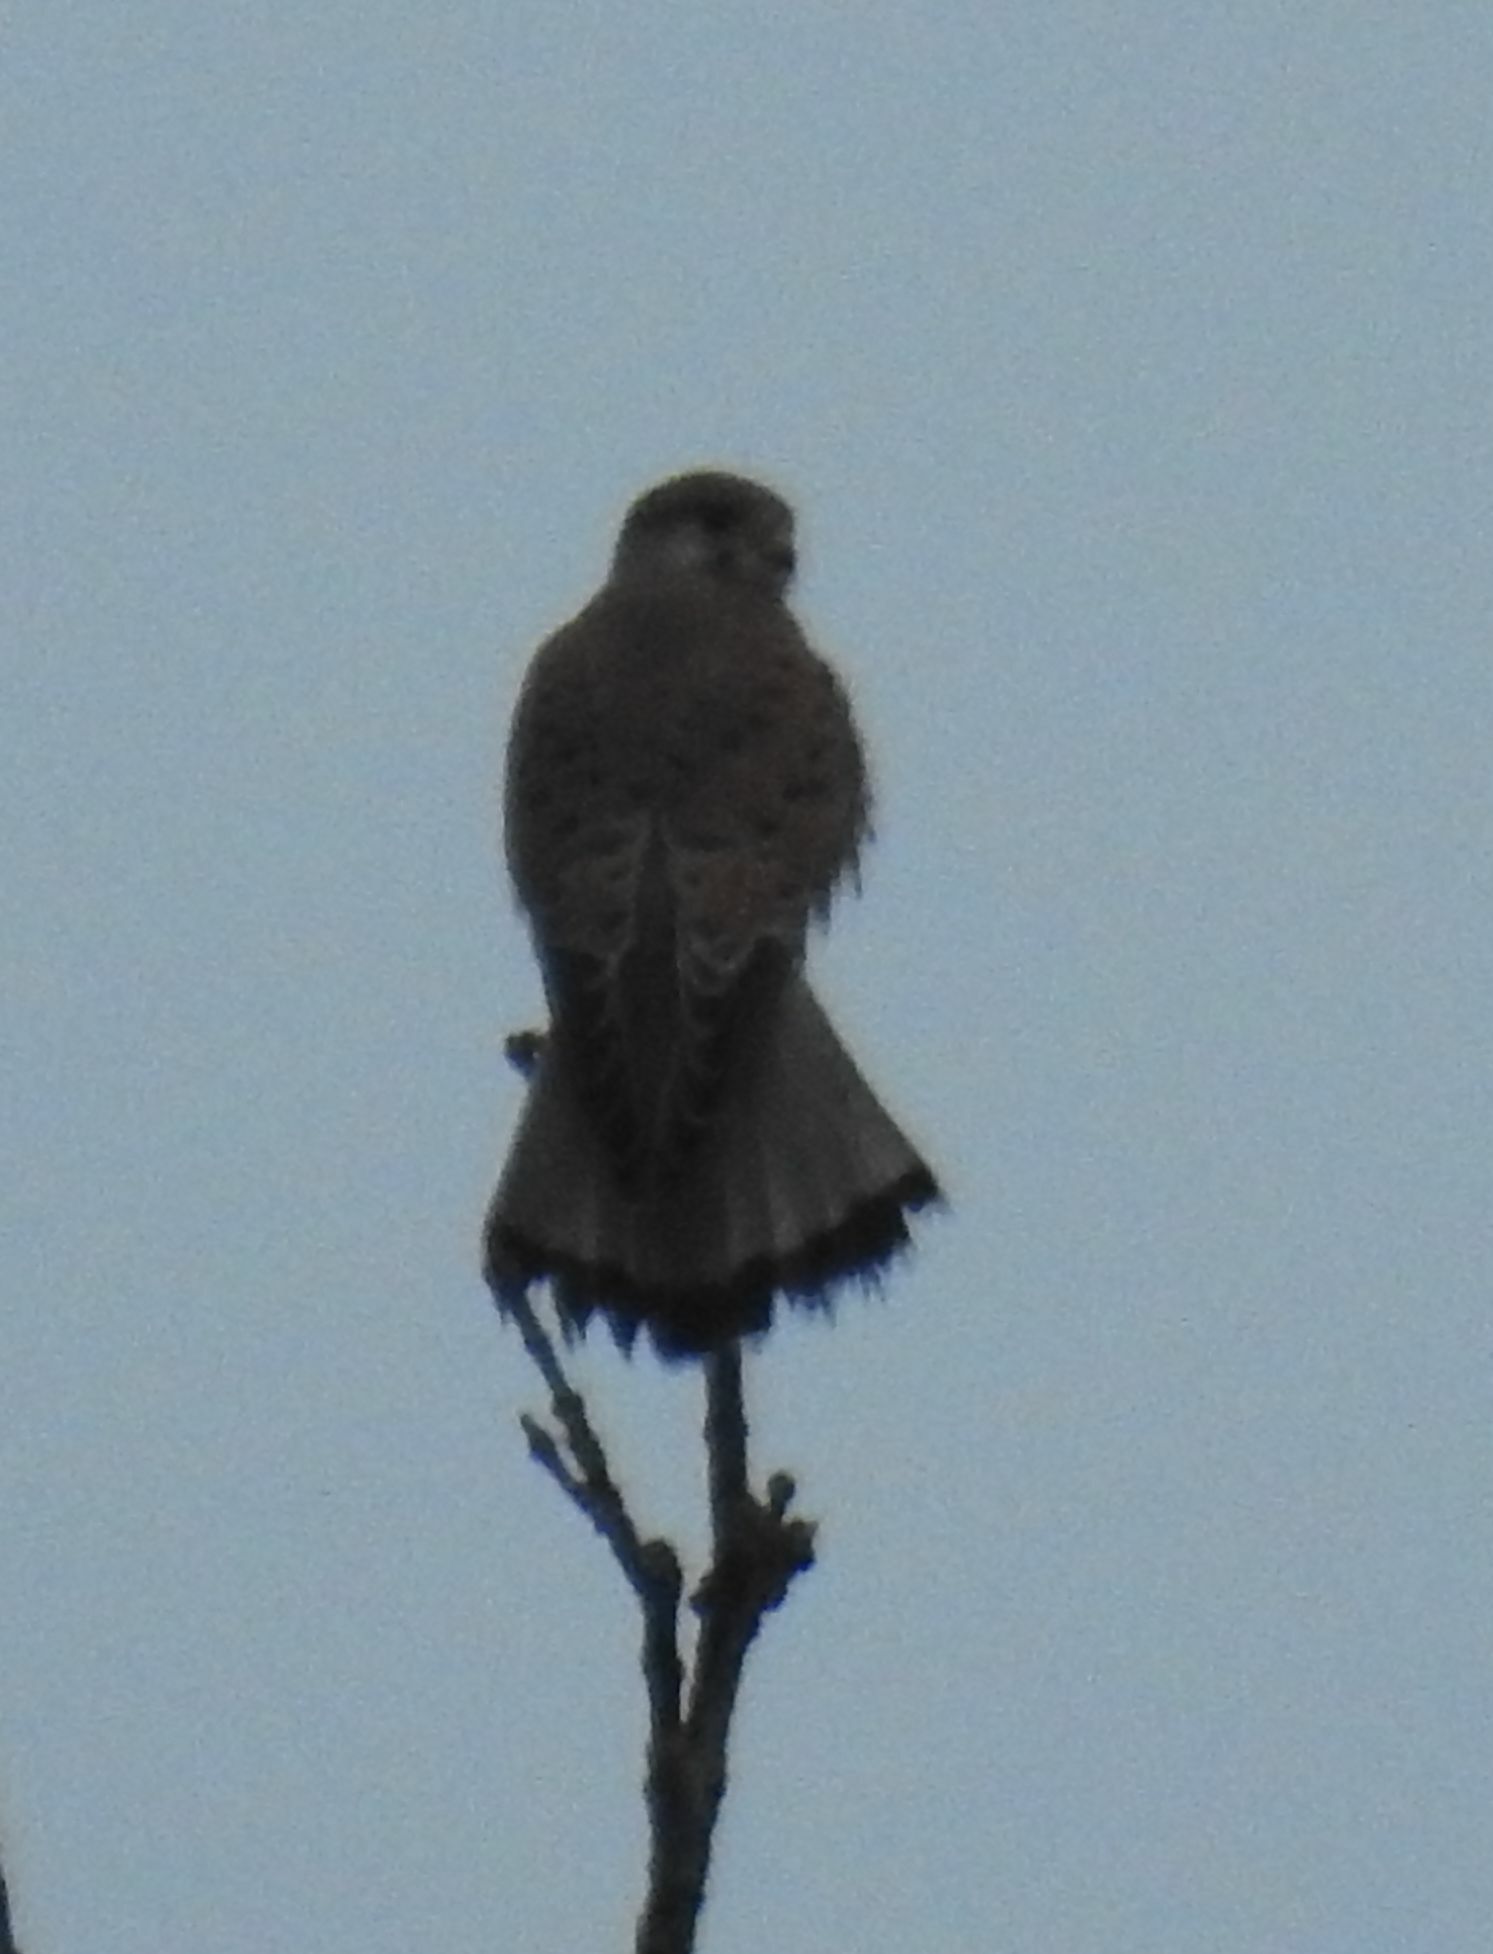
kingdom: Animalia
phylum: Chordata
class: Aves
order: Falconiformes
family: Falconidae
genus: Falco
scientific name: Falco tinnunculus
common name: Common kestrel
